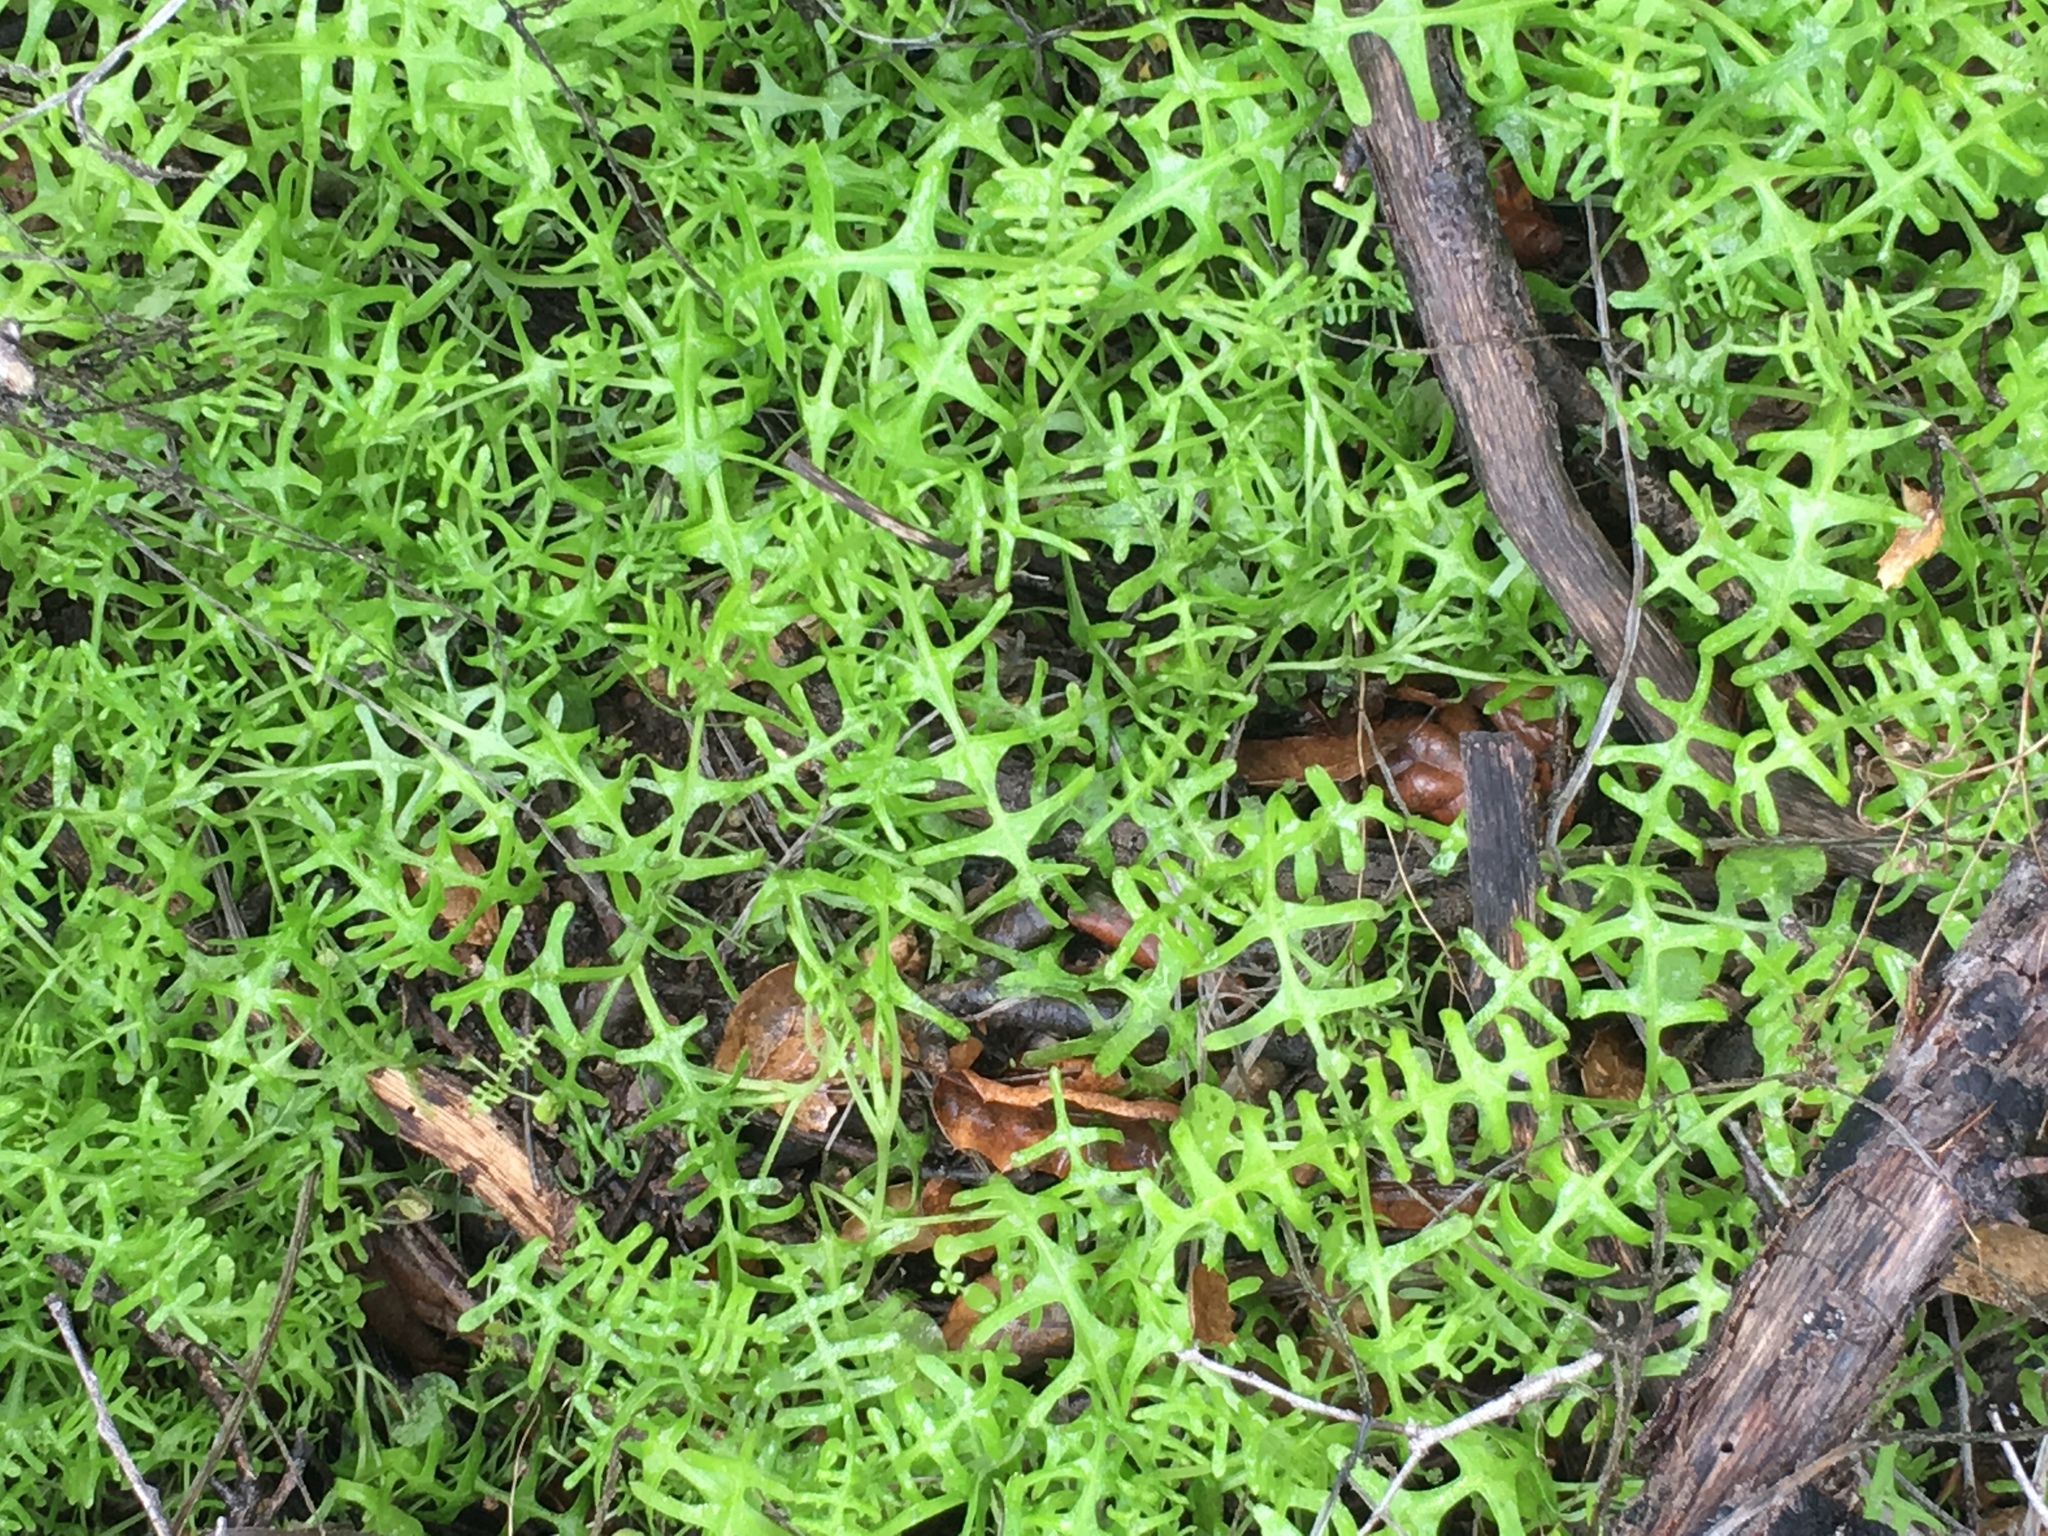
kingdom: Plantae
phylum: Tracheophyta
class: Magnoliopsida
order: Boraginales
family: Hydrophyllaceae
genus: Pholistoma
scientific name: Pholistoma auritum
